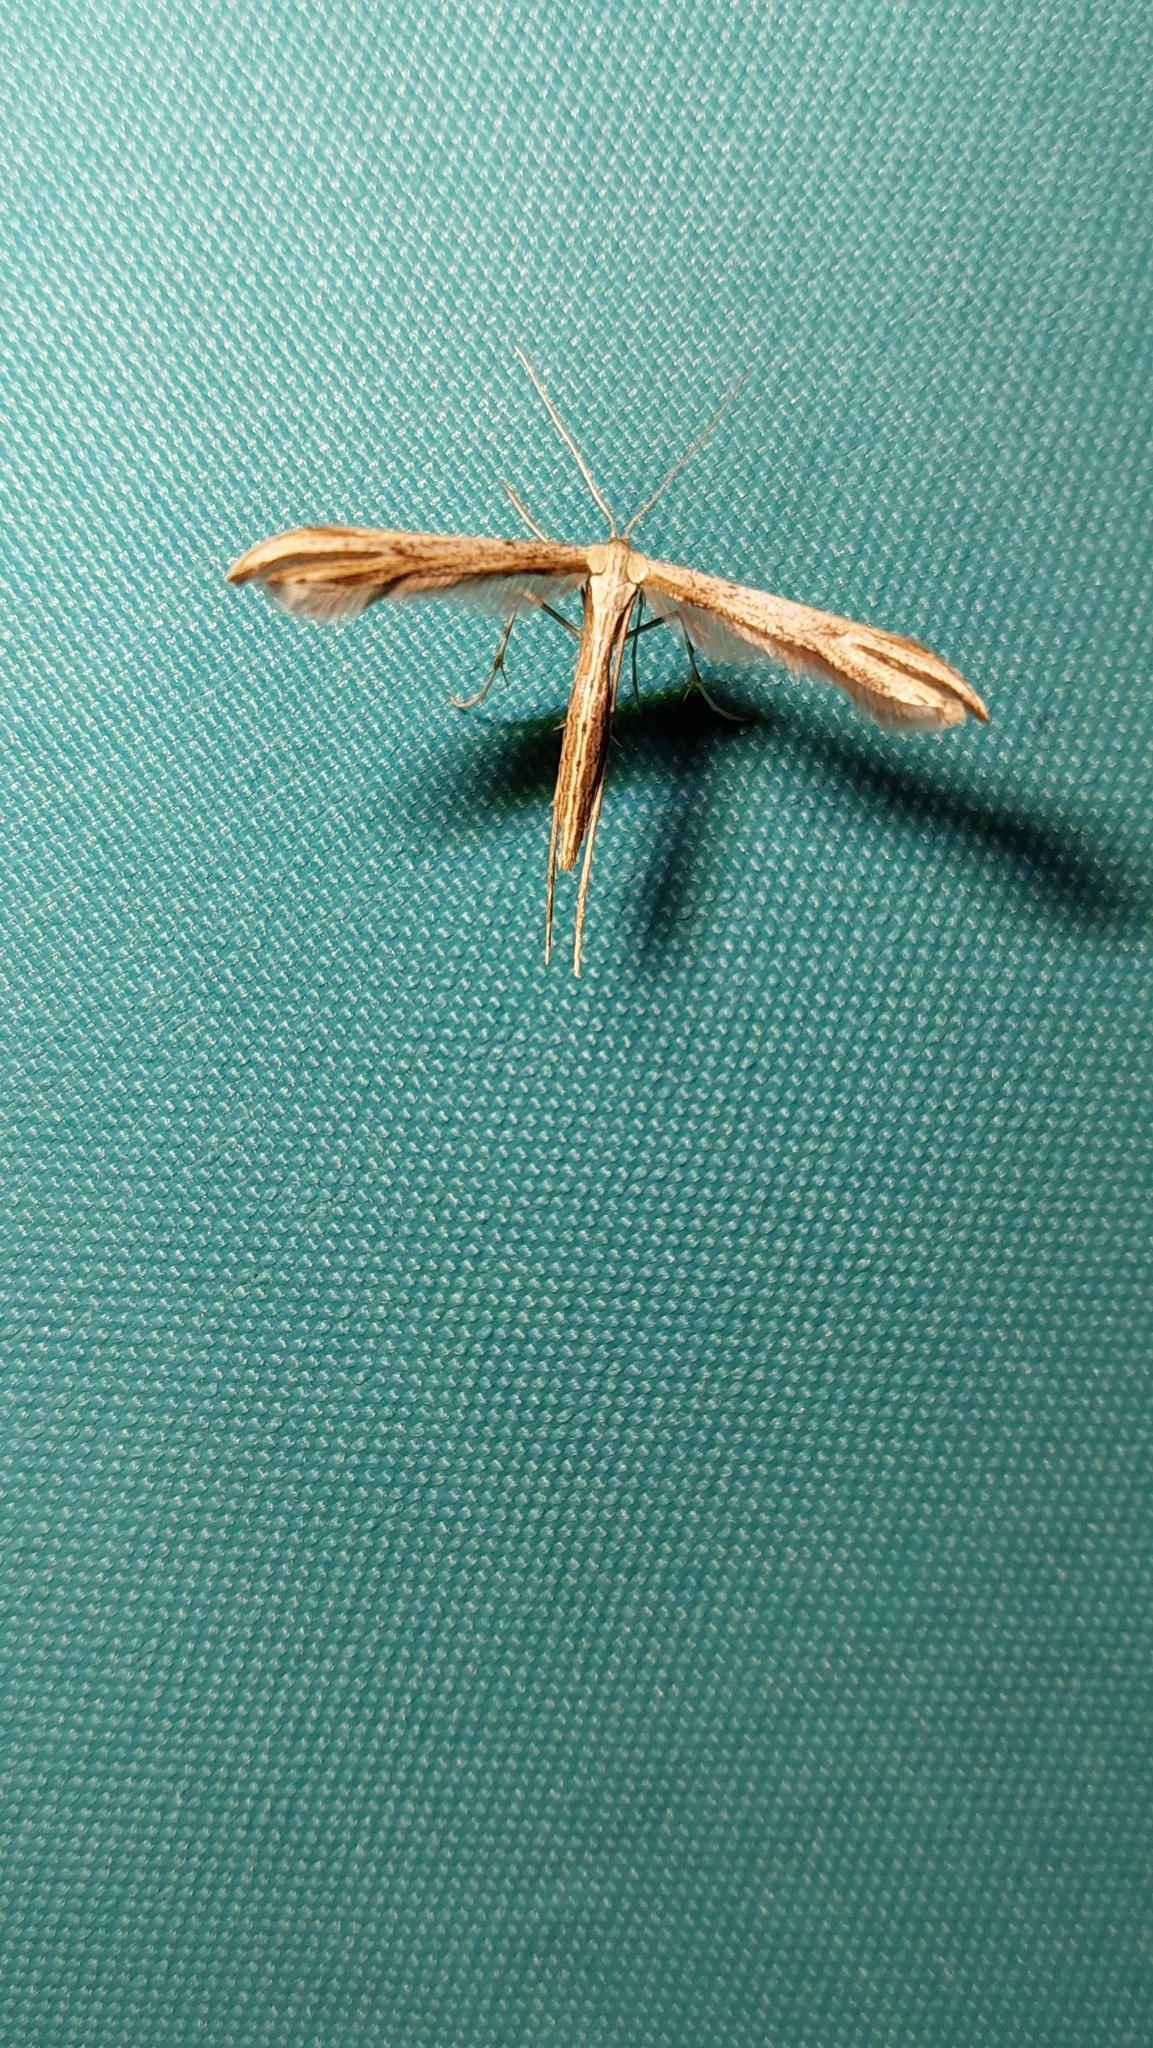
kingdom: Animalia
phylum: Arthropoda
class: Insecta
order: Lepidoptera
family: Pterophoridae
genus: Emmelina
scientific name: Emmelina monodactyla
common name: Common plume
